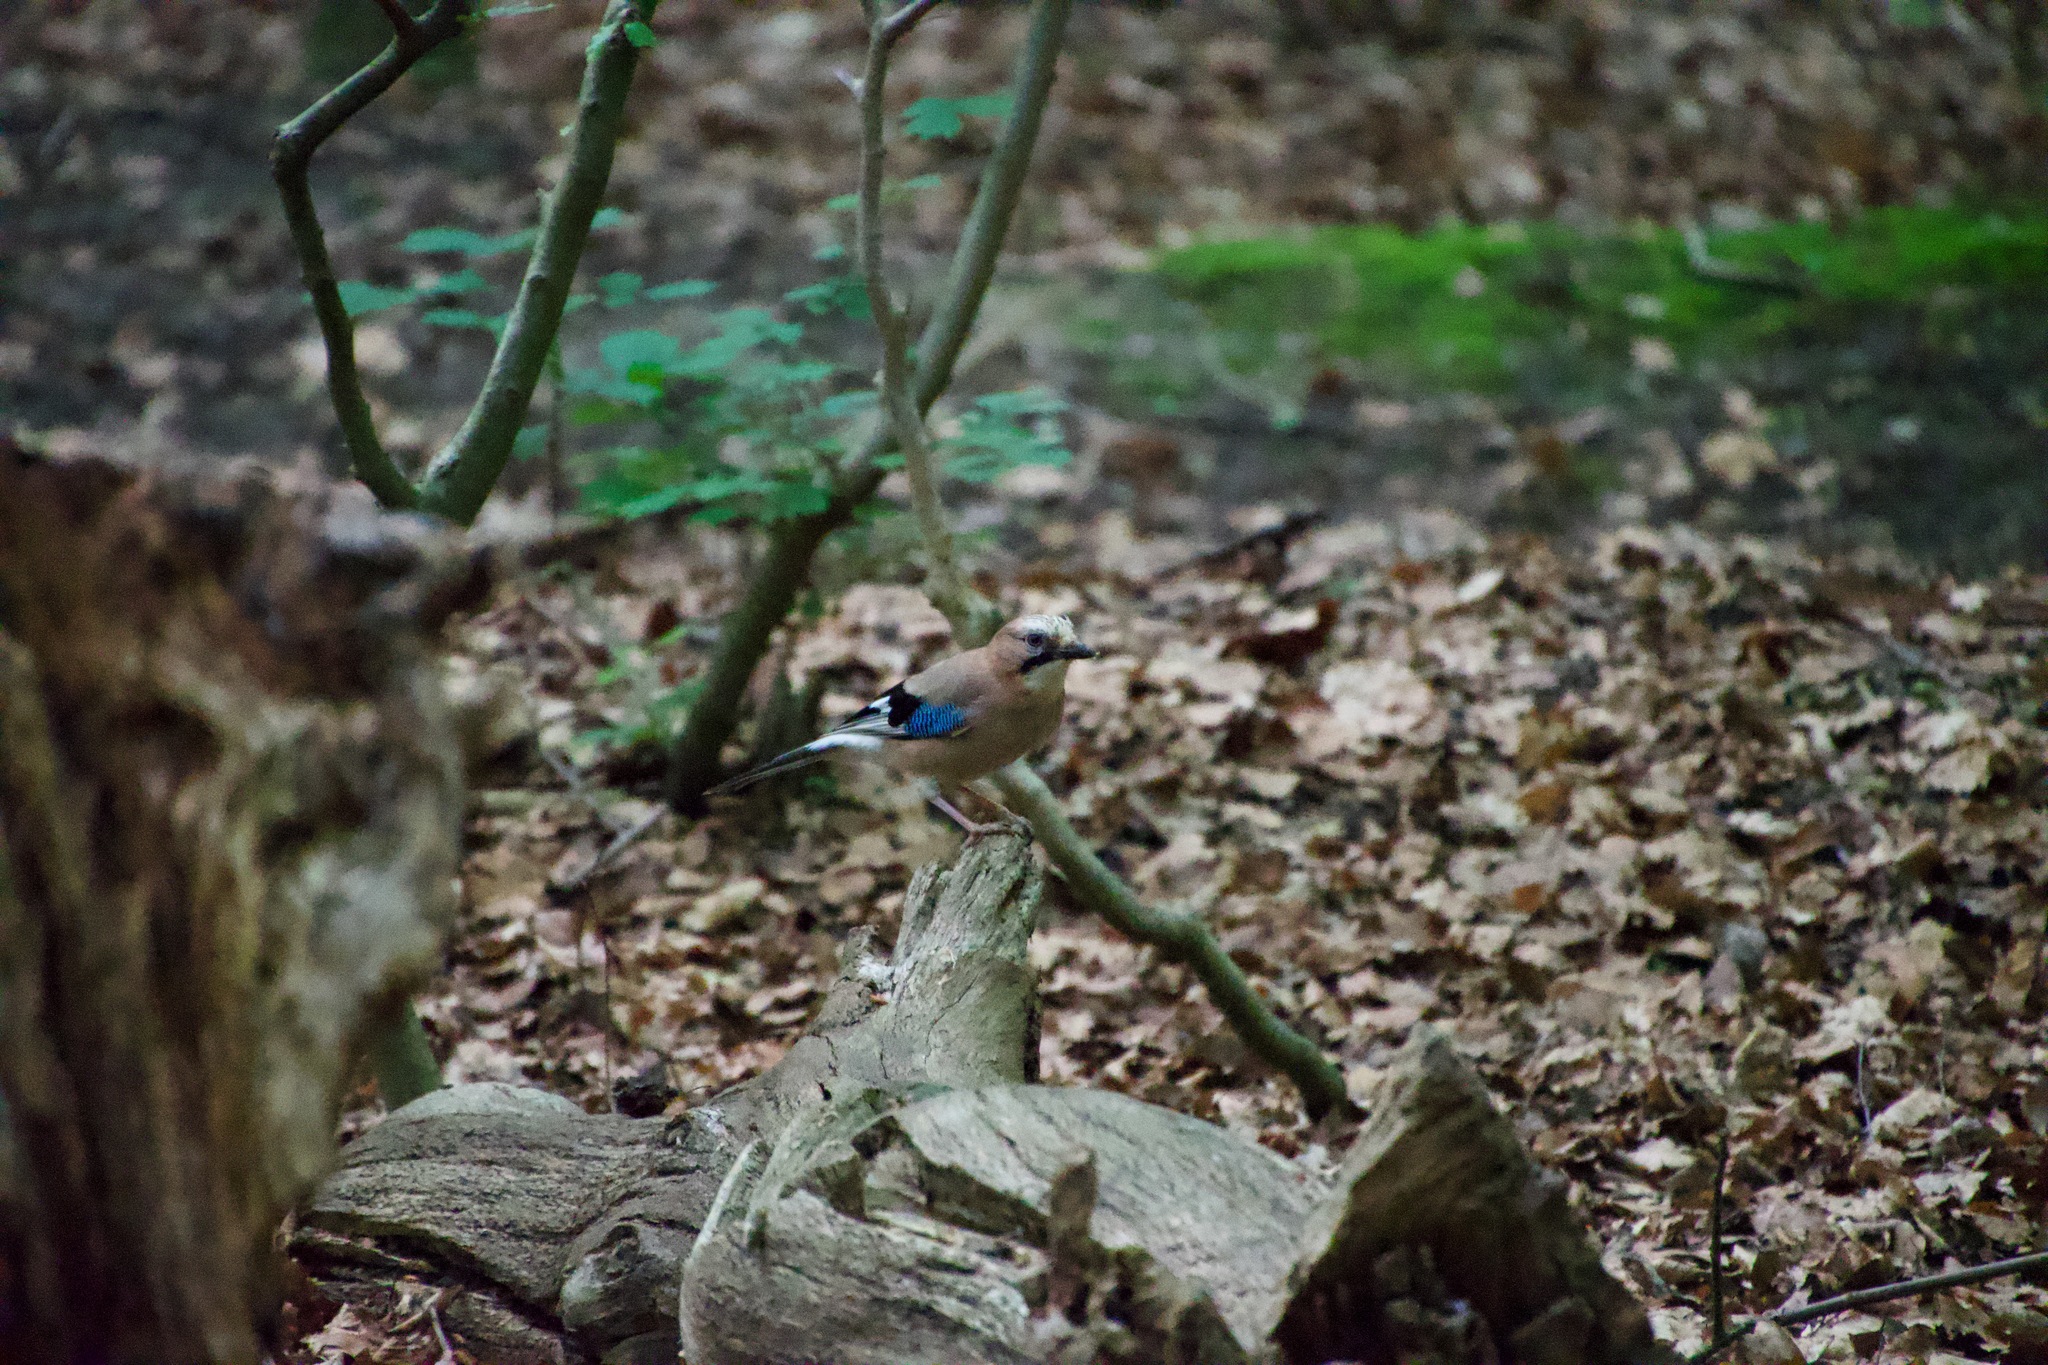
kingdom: Animalia
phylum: Chordata
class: Aves
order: Passeriformes
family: Corvidae
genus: Garrulus
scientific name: Garrulus glandarius
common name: Eurasian jay
